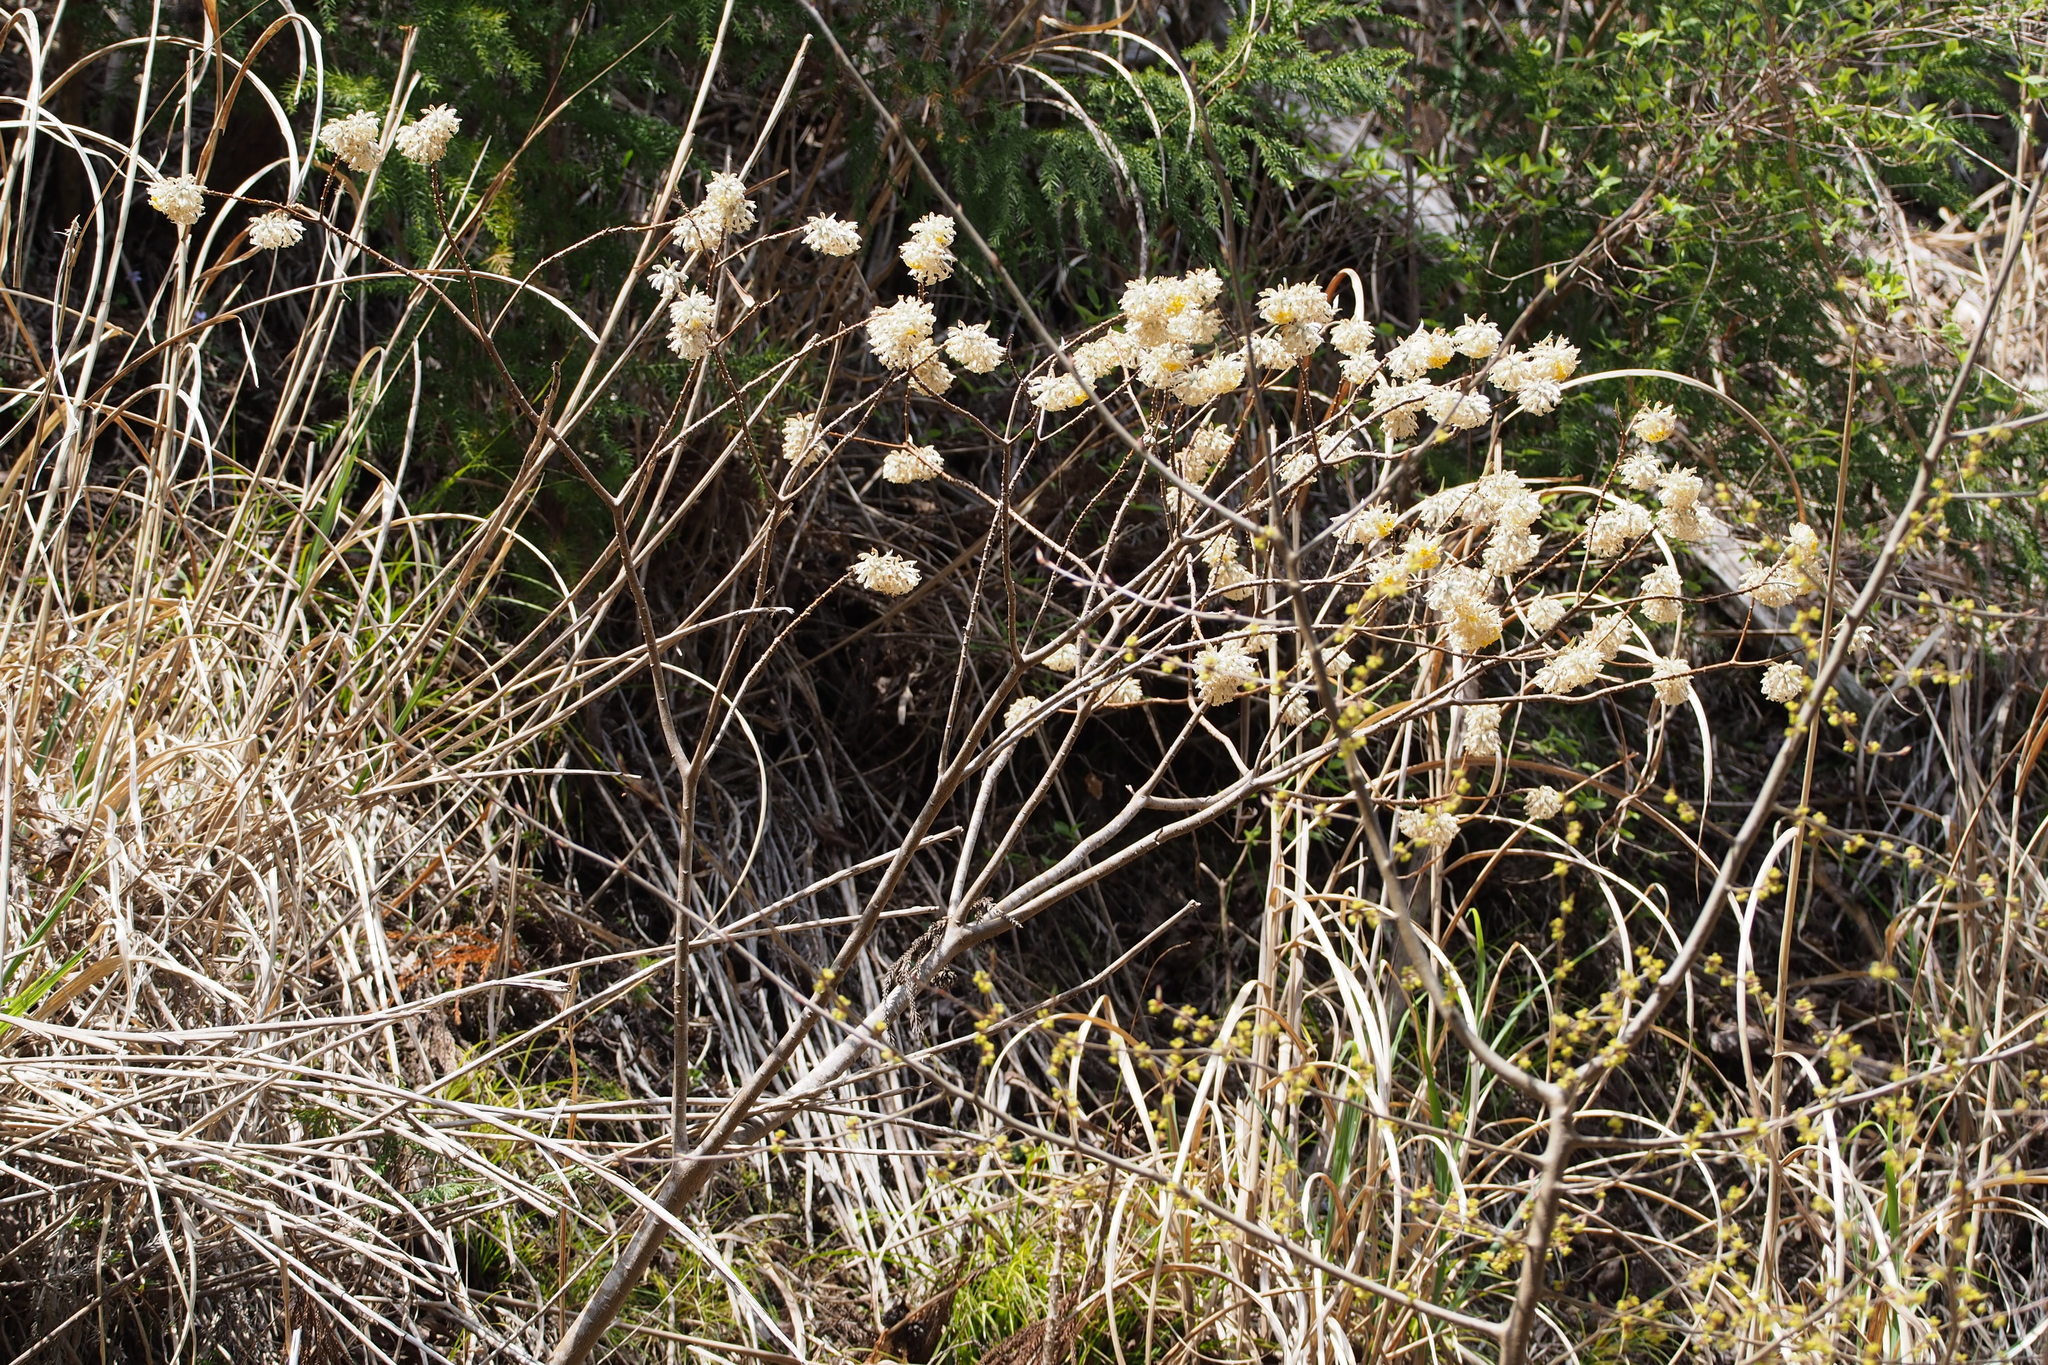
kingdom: Plantae
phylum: Tracheophyta
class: Magnoliopsida
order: Malvales
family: Thymelaeaceae
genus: Edgeworthia
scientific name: Edgeworthia chrysantha
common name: Oriental paperbush
